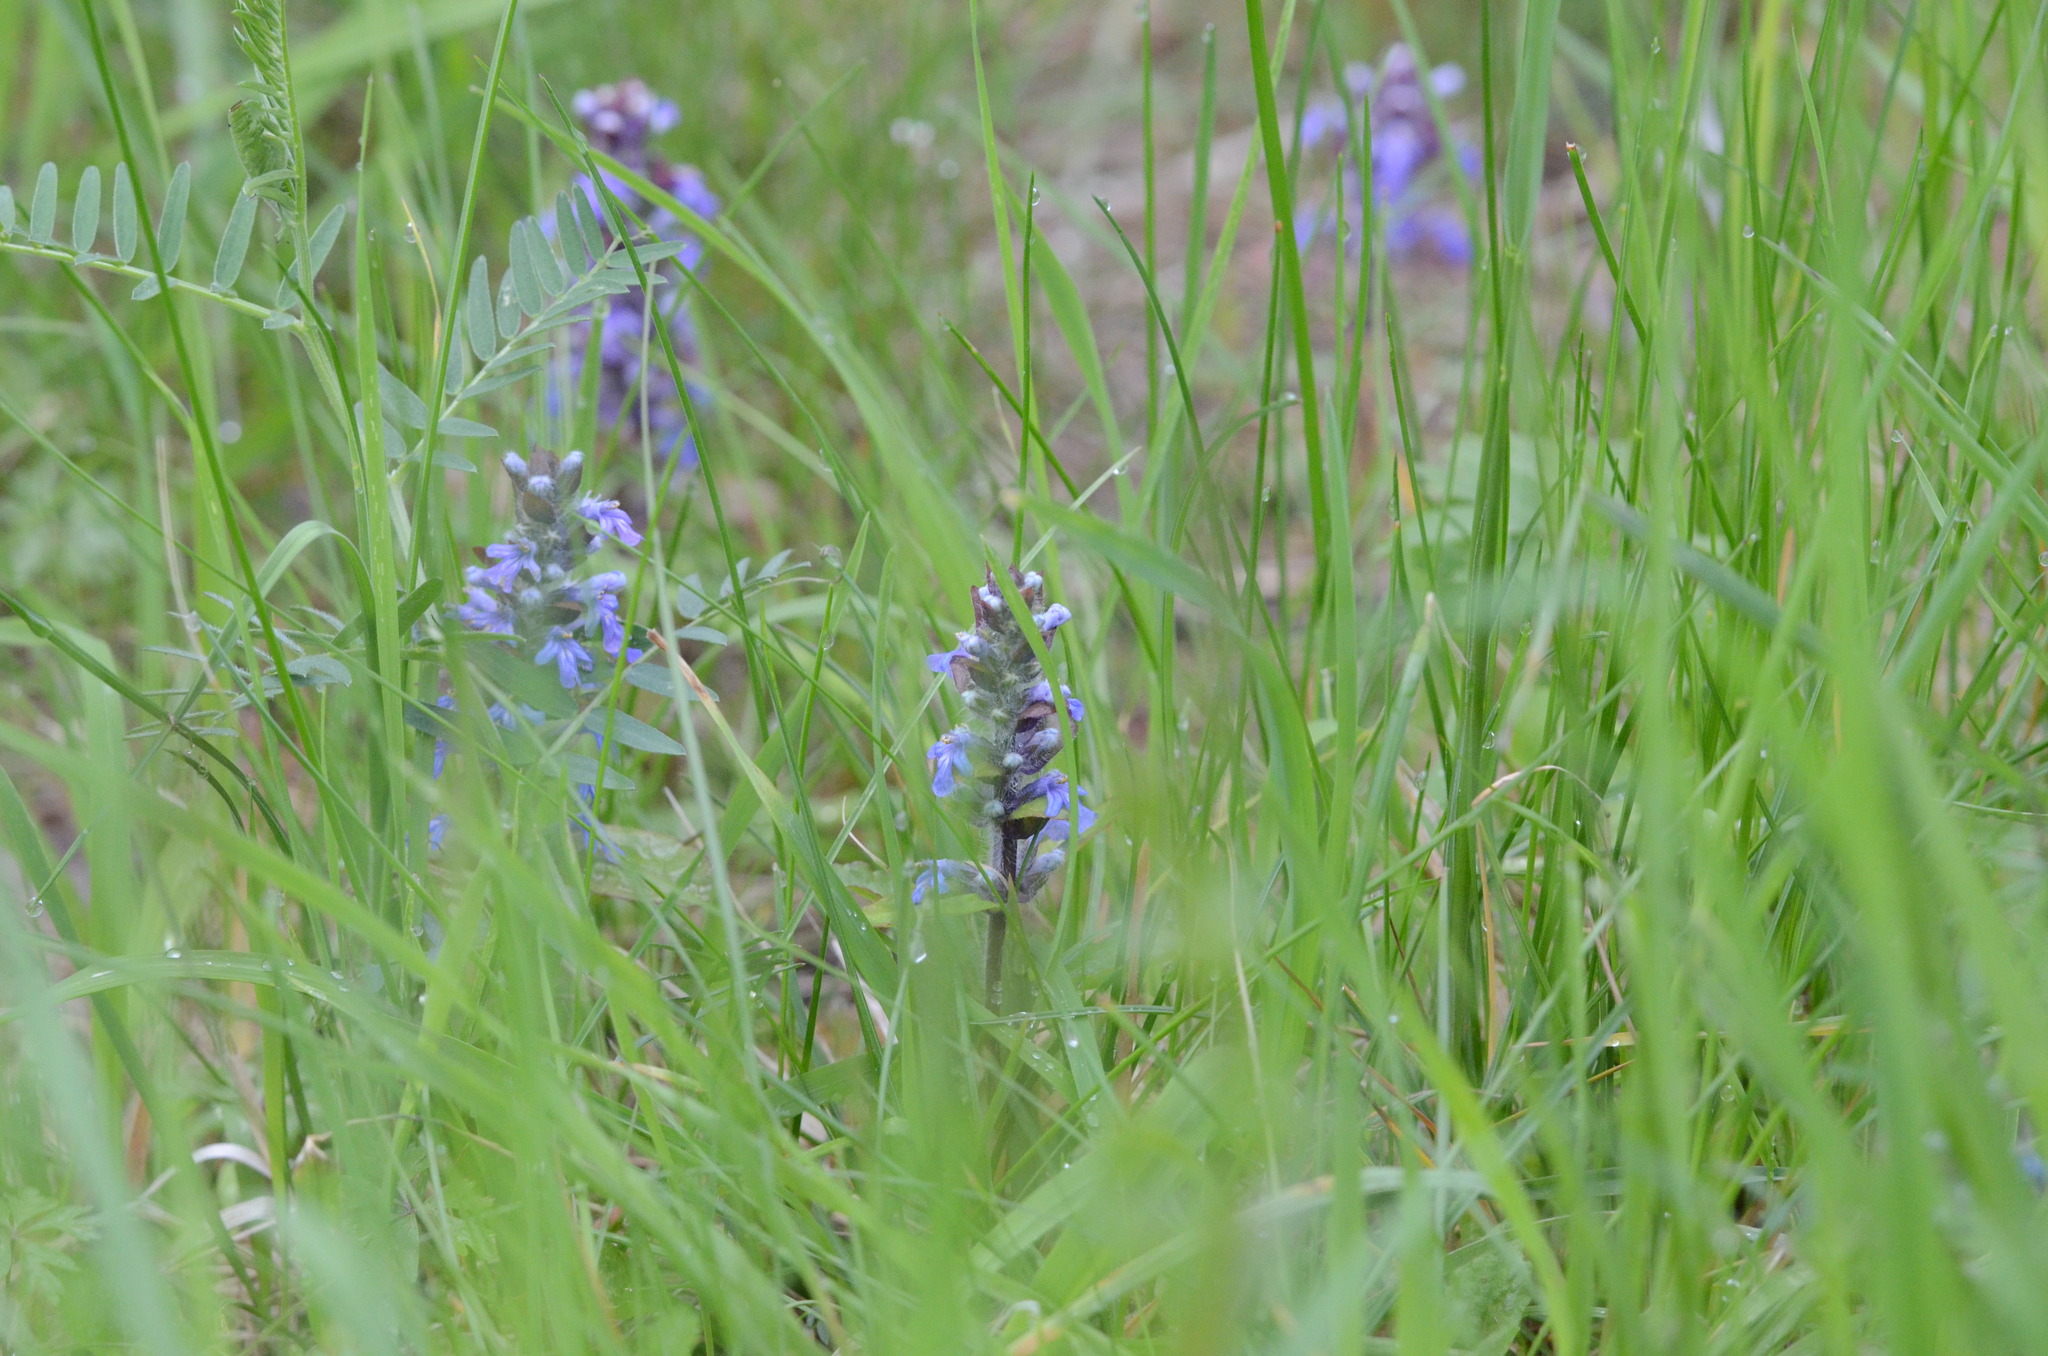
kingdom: Plantae
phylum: Tracheophyta
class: Magnoliopsida
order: Lamiales
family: Lamiaceae
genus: Ajuga
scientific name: Ajuga reptans
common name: Bugle
